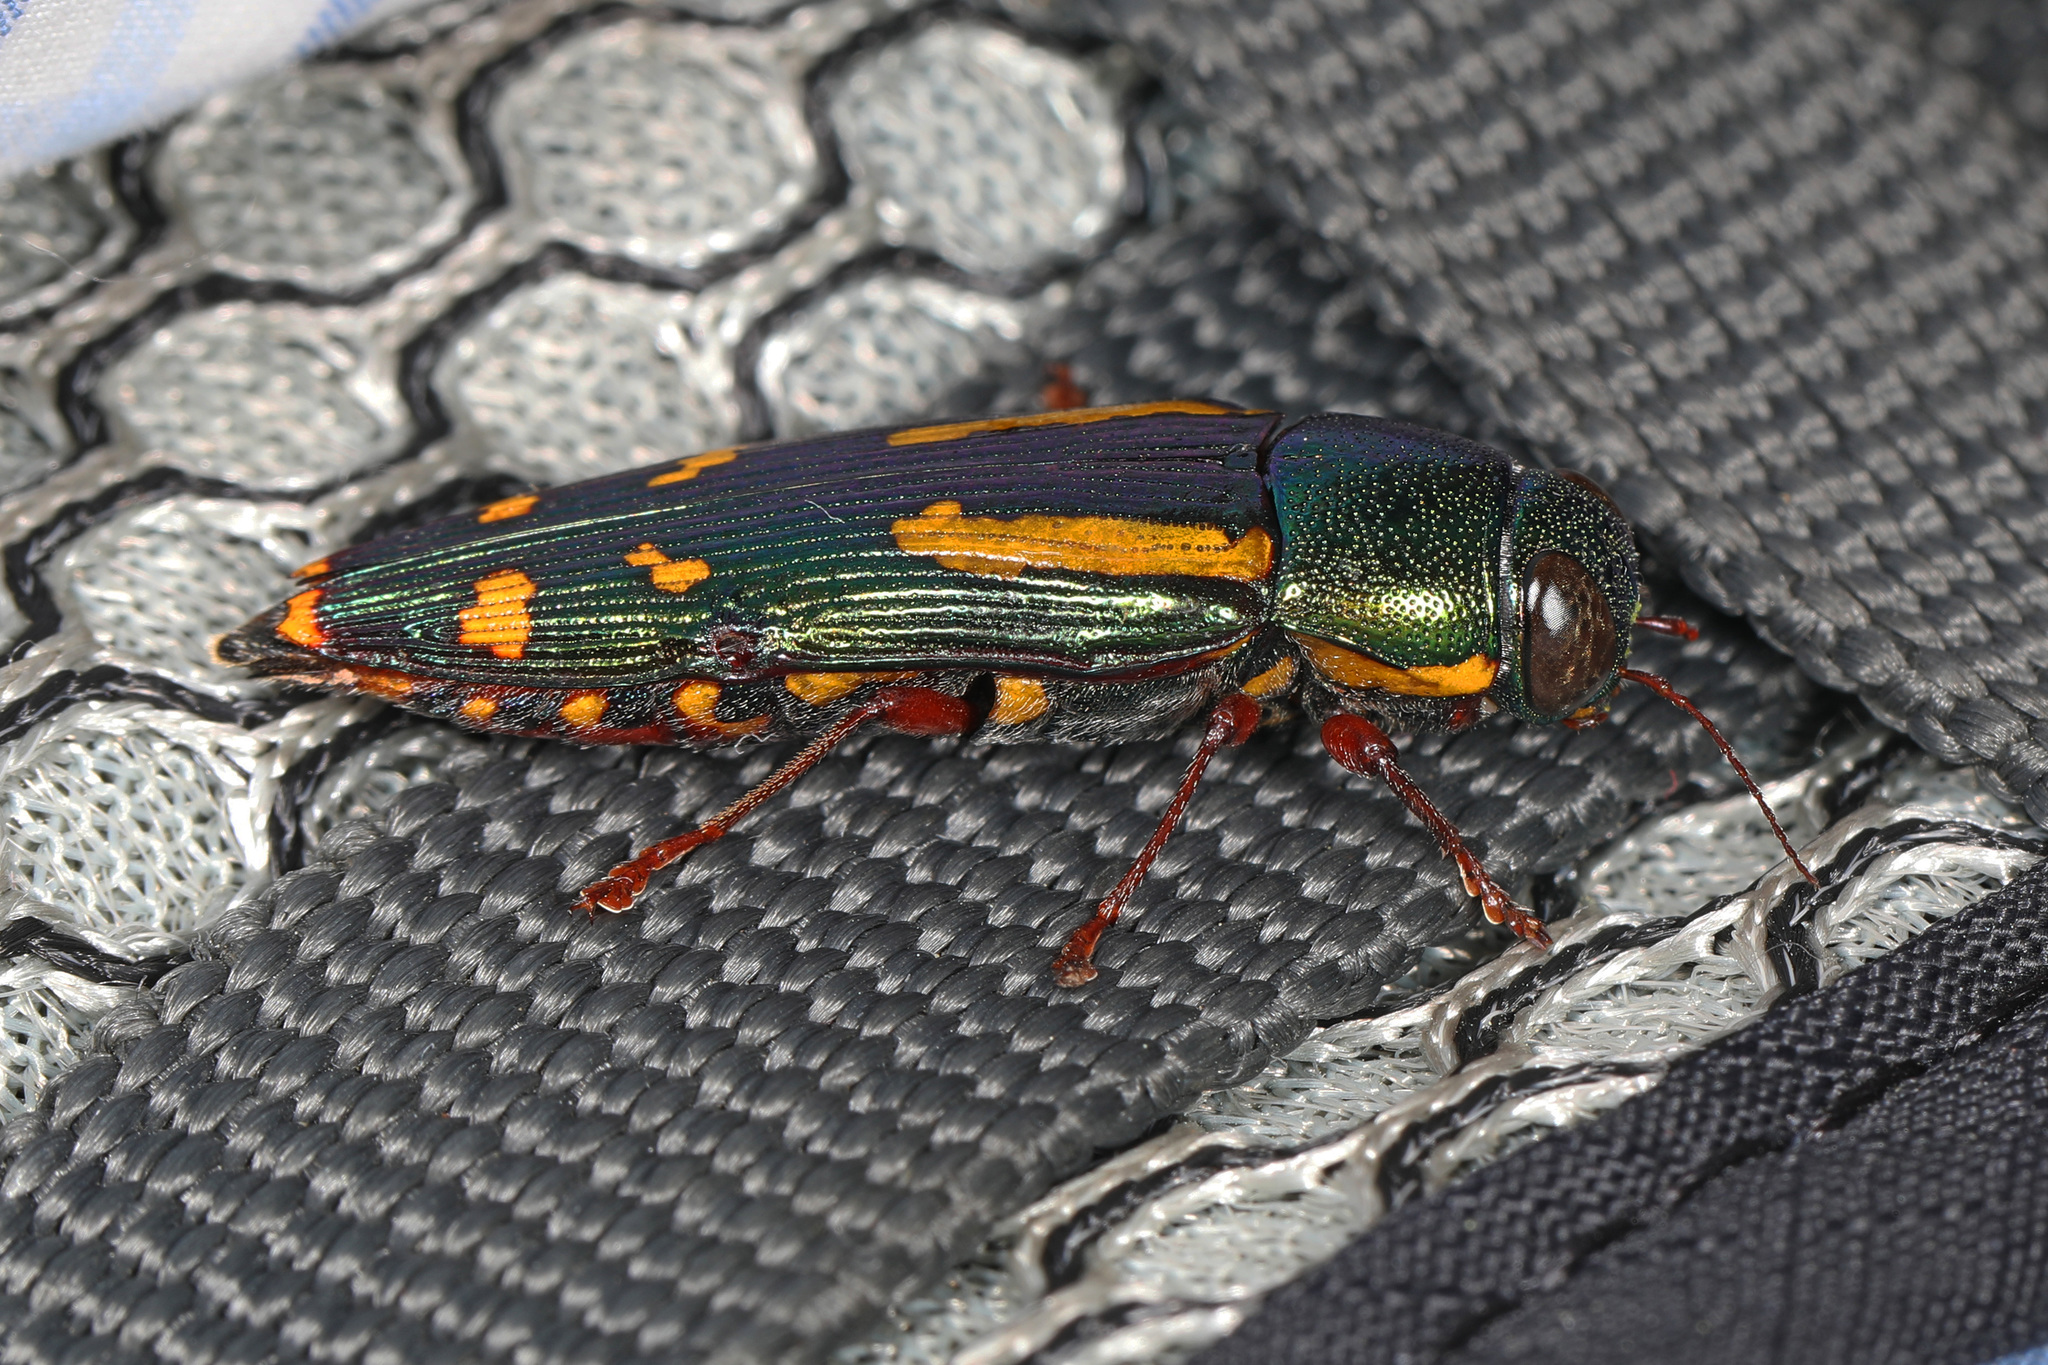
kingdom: Animalia
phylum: Arthropoda
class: Insecta
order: Coleoptera
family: Buprestidae
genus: Buprestis
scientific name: Buprestis rufipes
